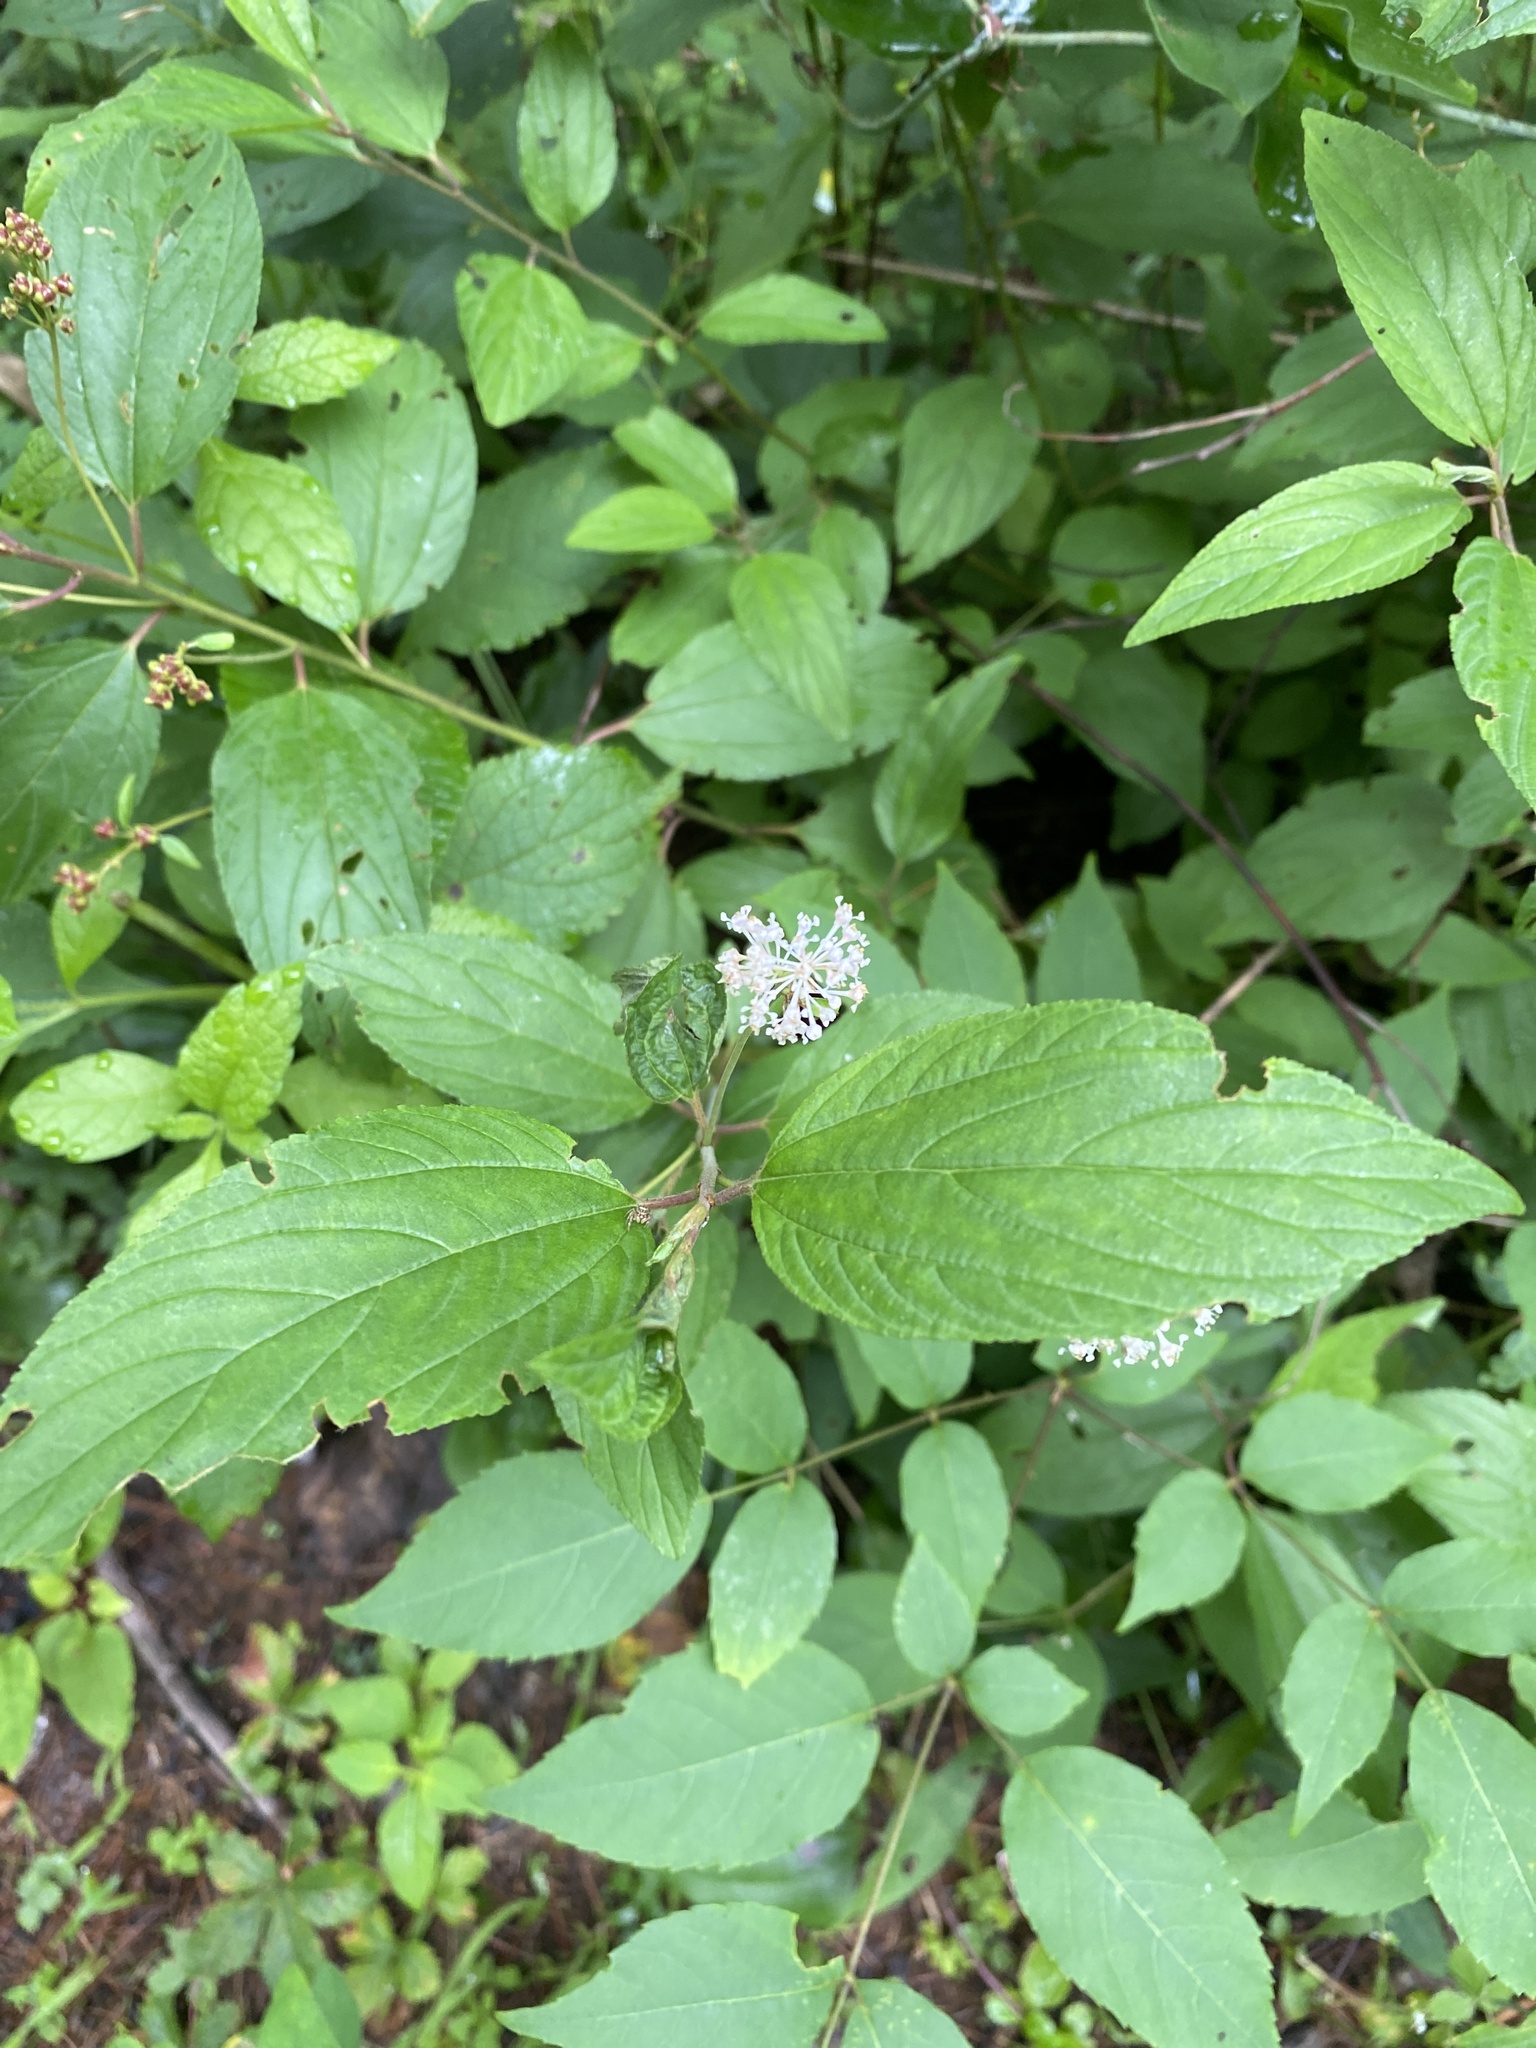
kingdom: Plantae
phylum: Tracheophyta
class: Magnoliopsida
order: Rosales
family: Rhamnaceae
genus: Ceanothus
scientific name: Ceanothus americanus
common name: Redroot
